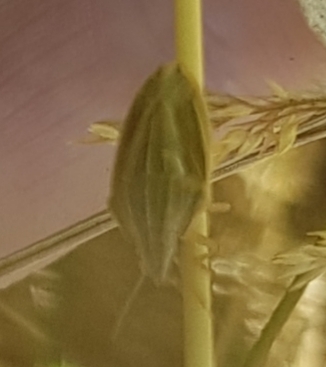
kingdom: Animalia
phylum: Arthropoda
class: Insecta
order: Hemiptera
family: Pentatomidae
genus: Aelia
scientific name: Aelia acuminata
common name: Bishop's mitre
